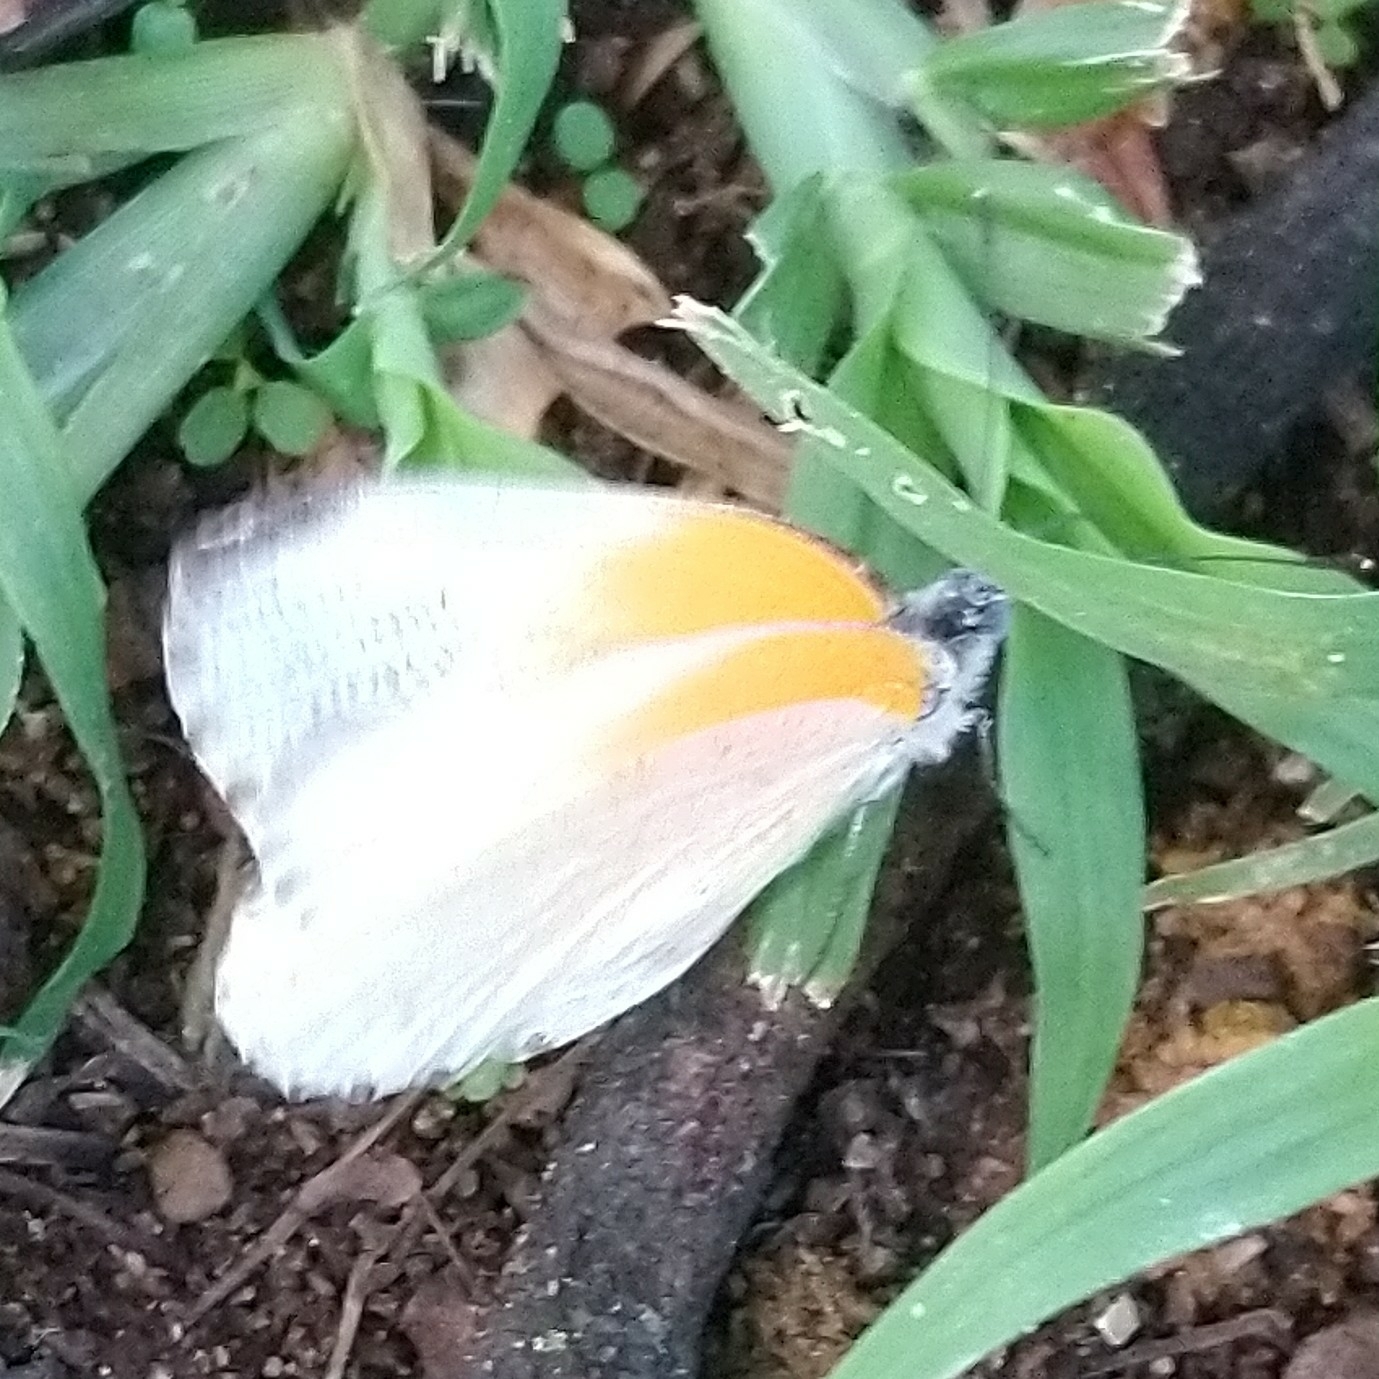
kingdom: Animalia
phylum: Arthropoda
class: Insecta
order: Lepidoptera
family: Pieridae
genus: Mylothris
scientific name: Mylothris rueppellii
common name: Twin dotted border
